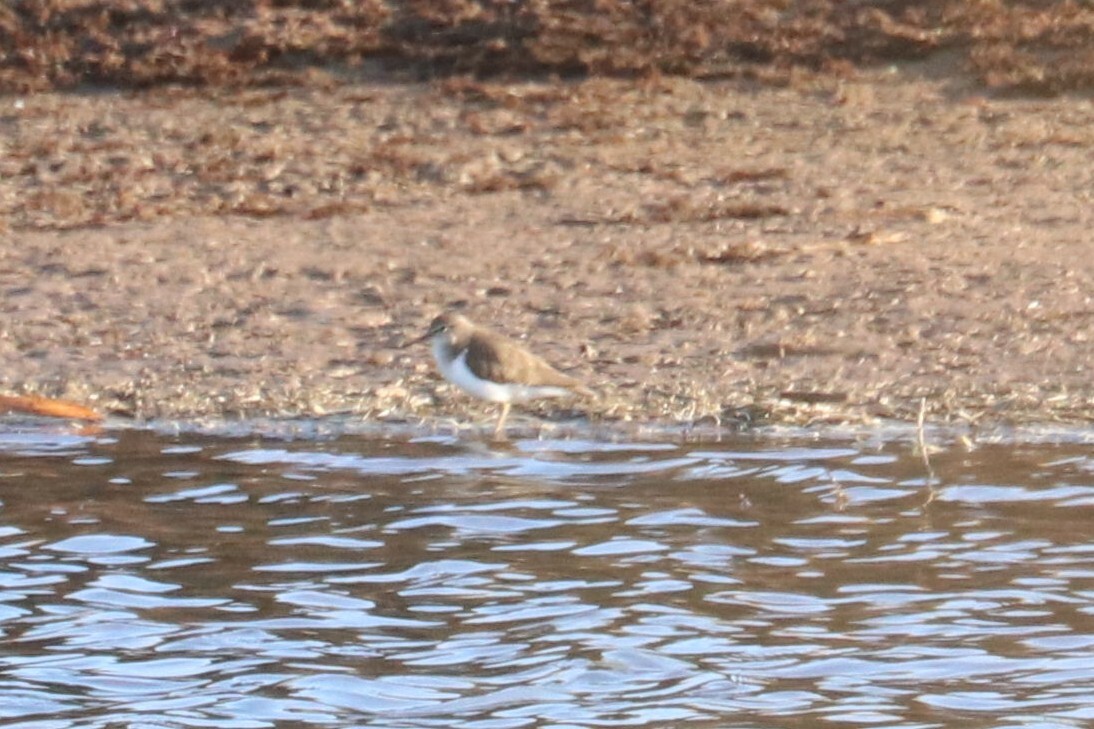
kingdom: Animalia
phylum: Chordata
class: Aves
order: Charadriiformes
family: Scolopacidae
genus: Actitis
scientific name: Actitis hypoleucos
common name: Common sandpiper
